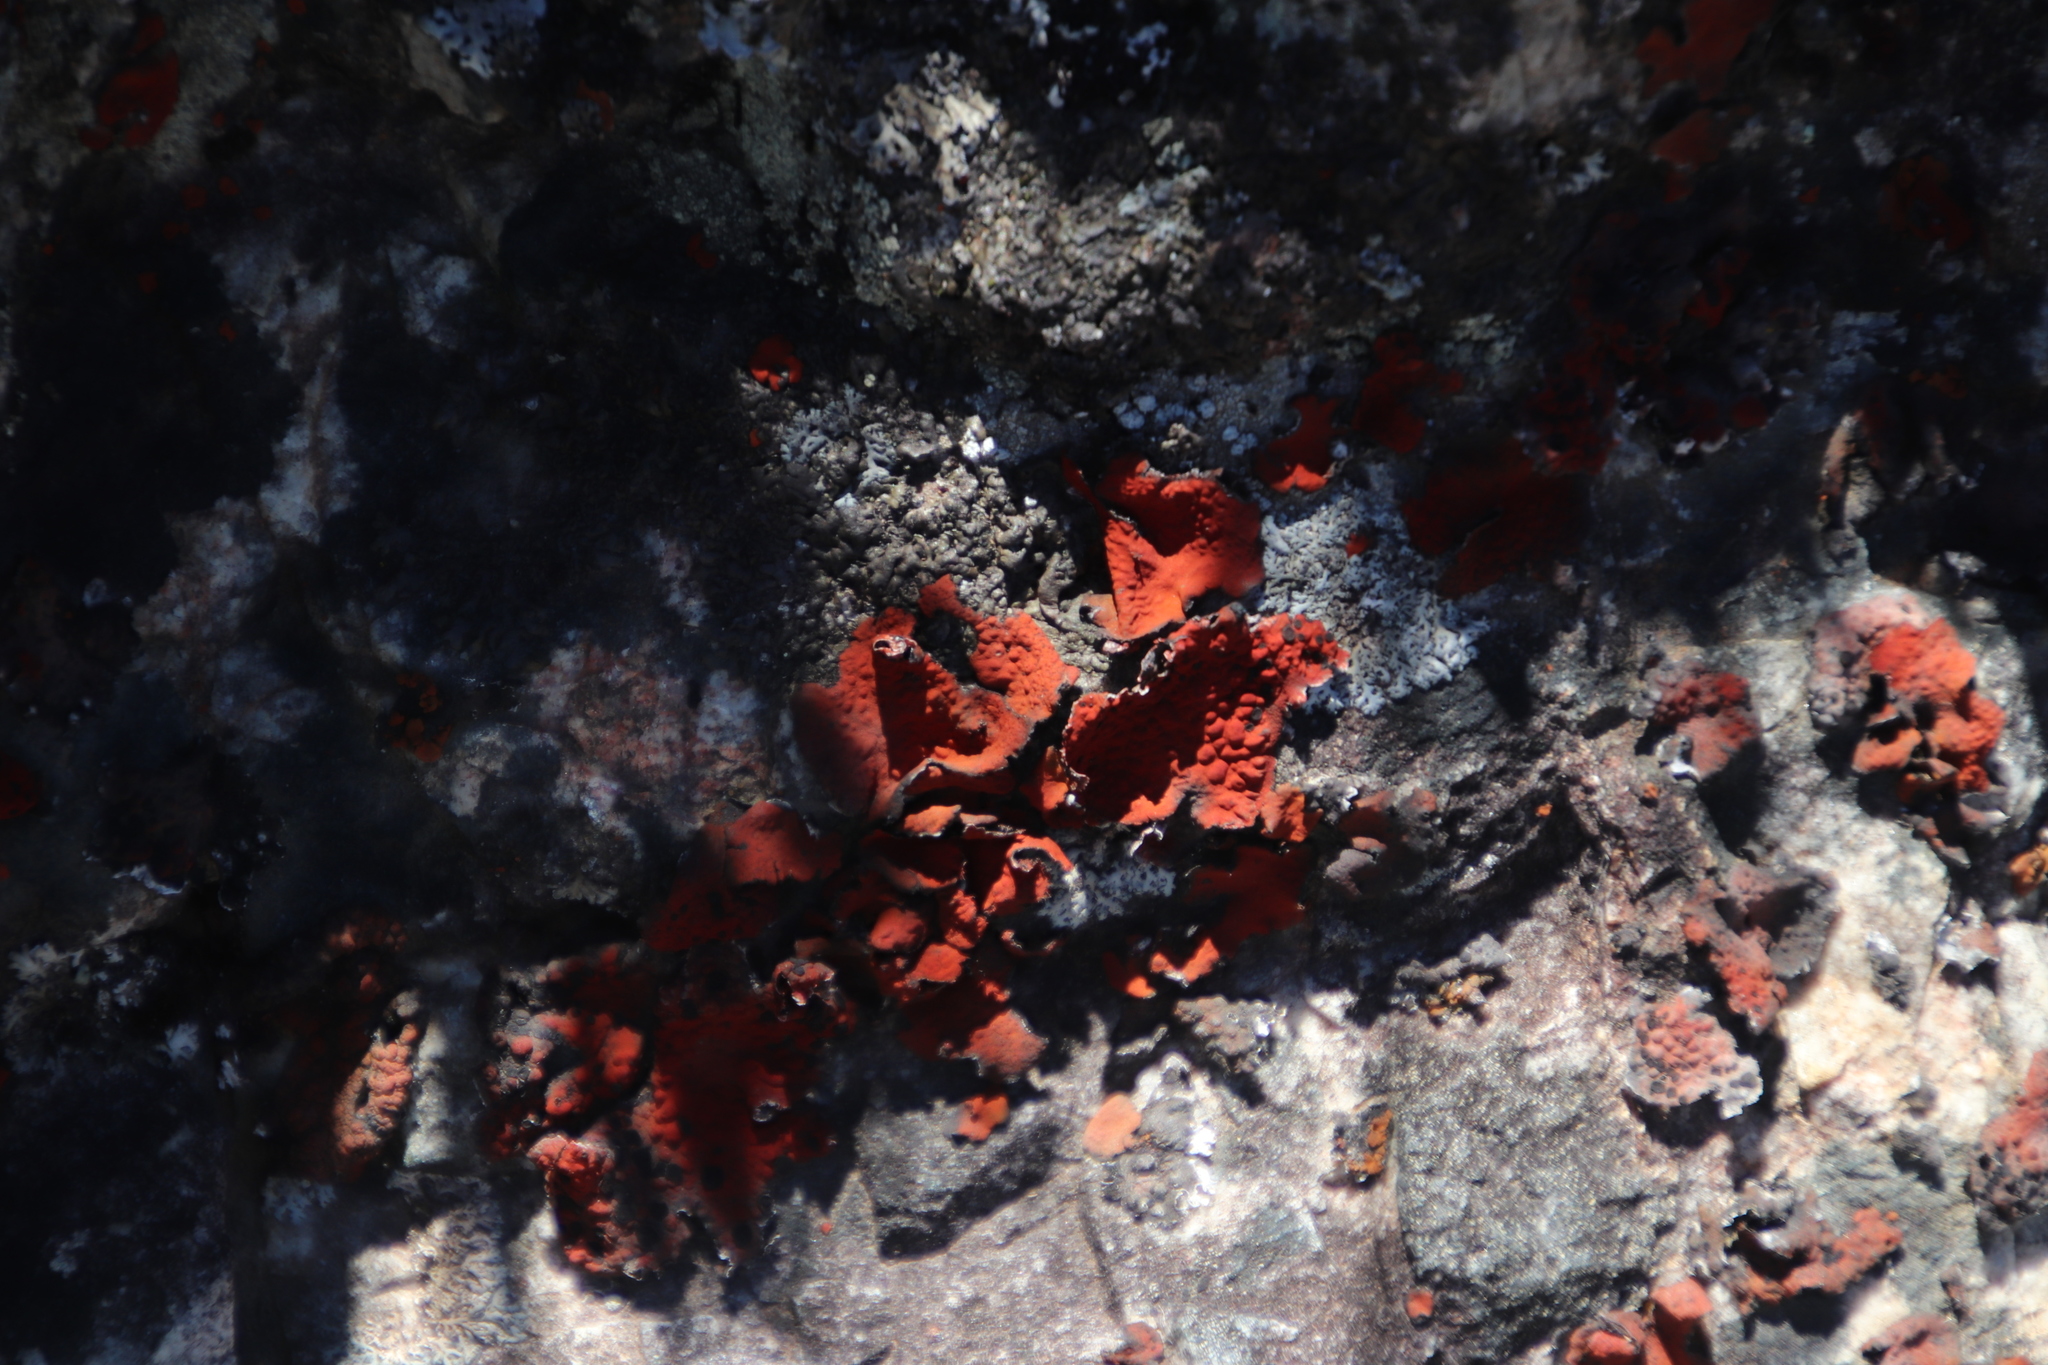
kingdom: Fungi
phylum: Ascomycota
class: Lecanoromycetes
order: Umbilicariales
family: Umbilicariaceae
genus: Lasallia
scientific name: Lasallia rubiginosa
